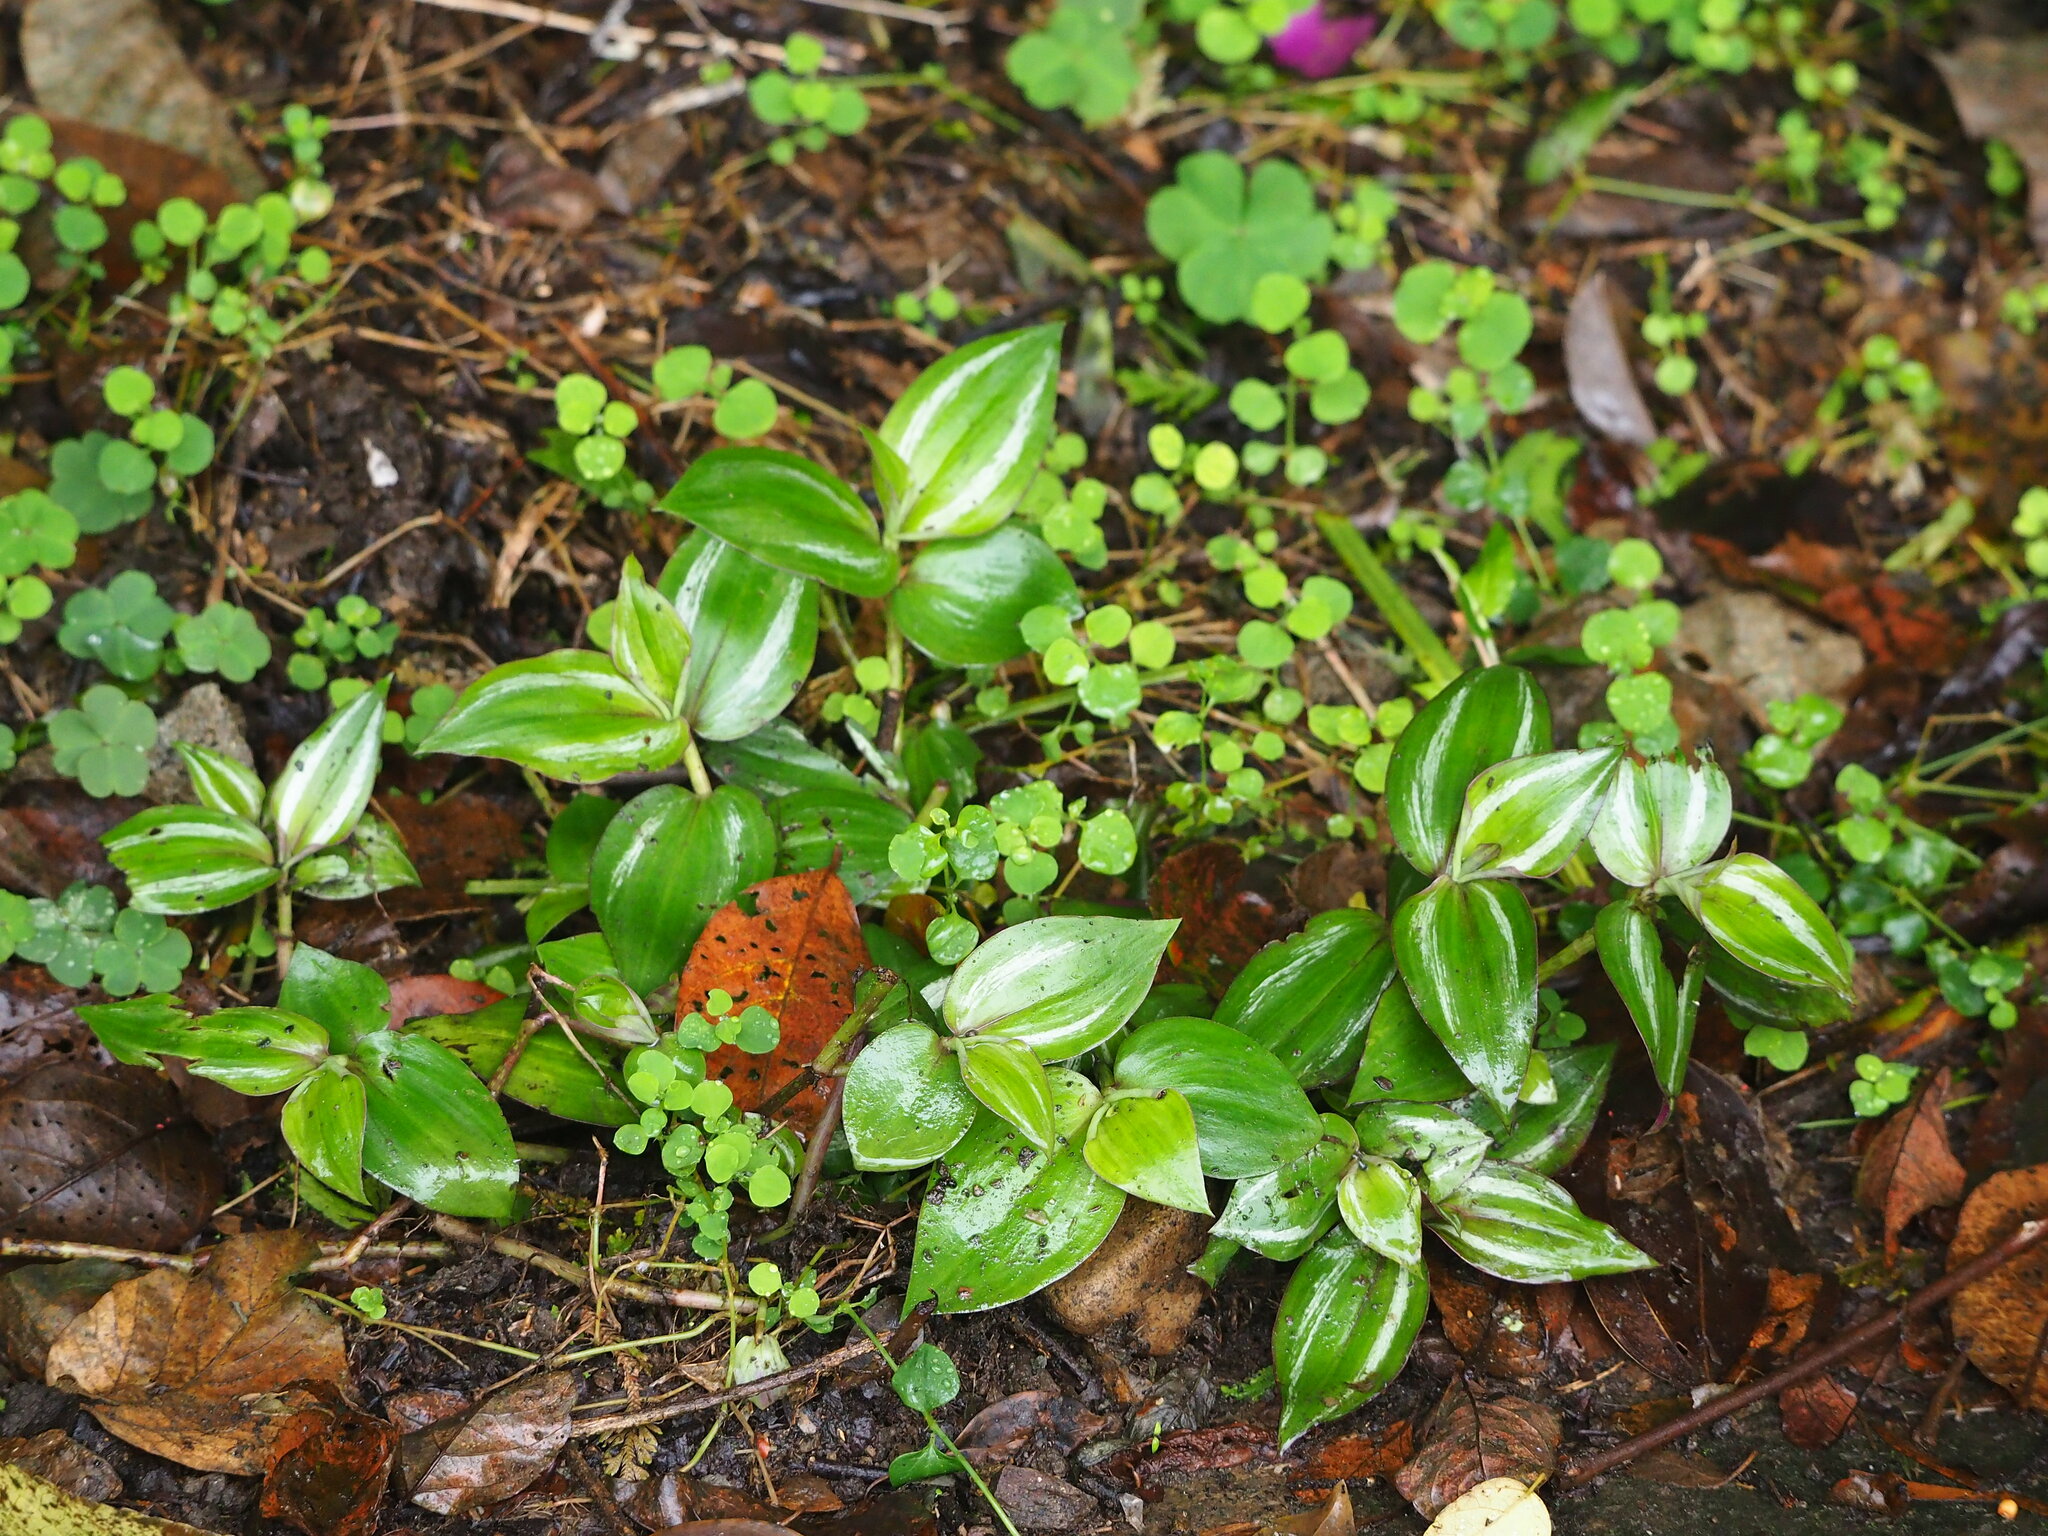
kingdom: Plantae
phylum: Tracheophyta
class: Liliopsida
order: Commelinales
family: Commelinaceae
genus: Tradescantia
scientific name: Tradescantia zebrina
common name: Inchplant
